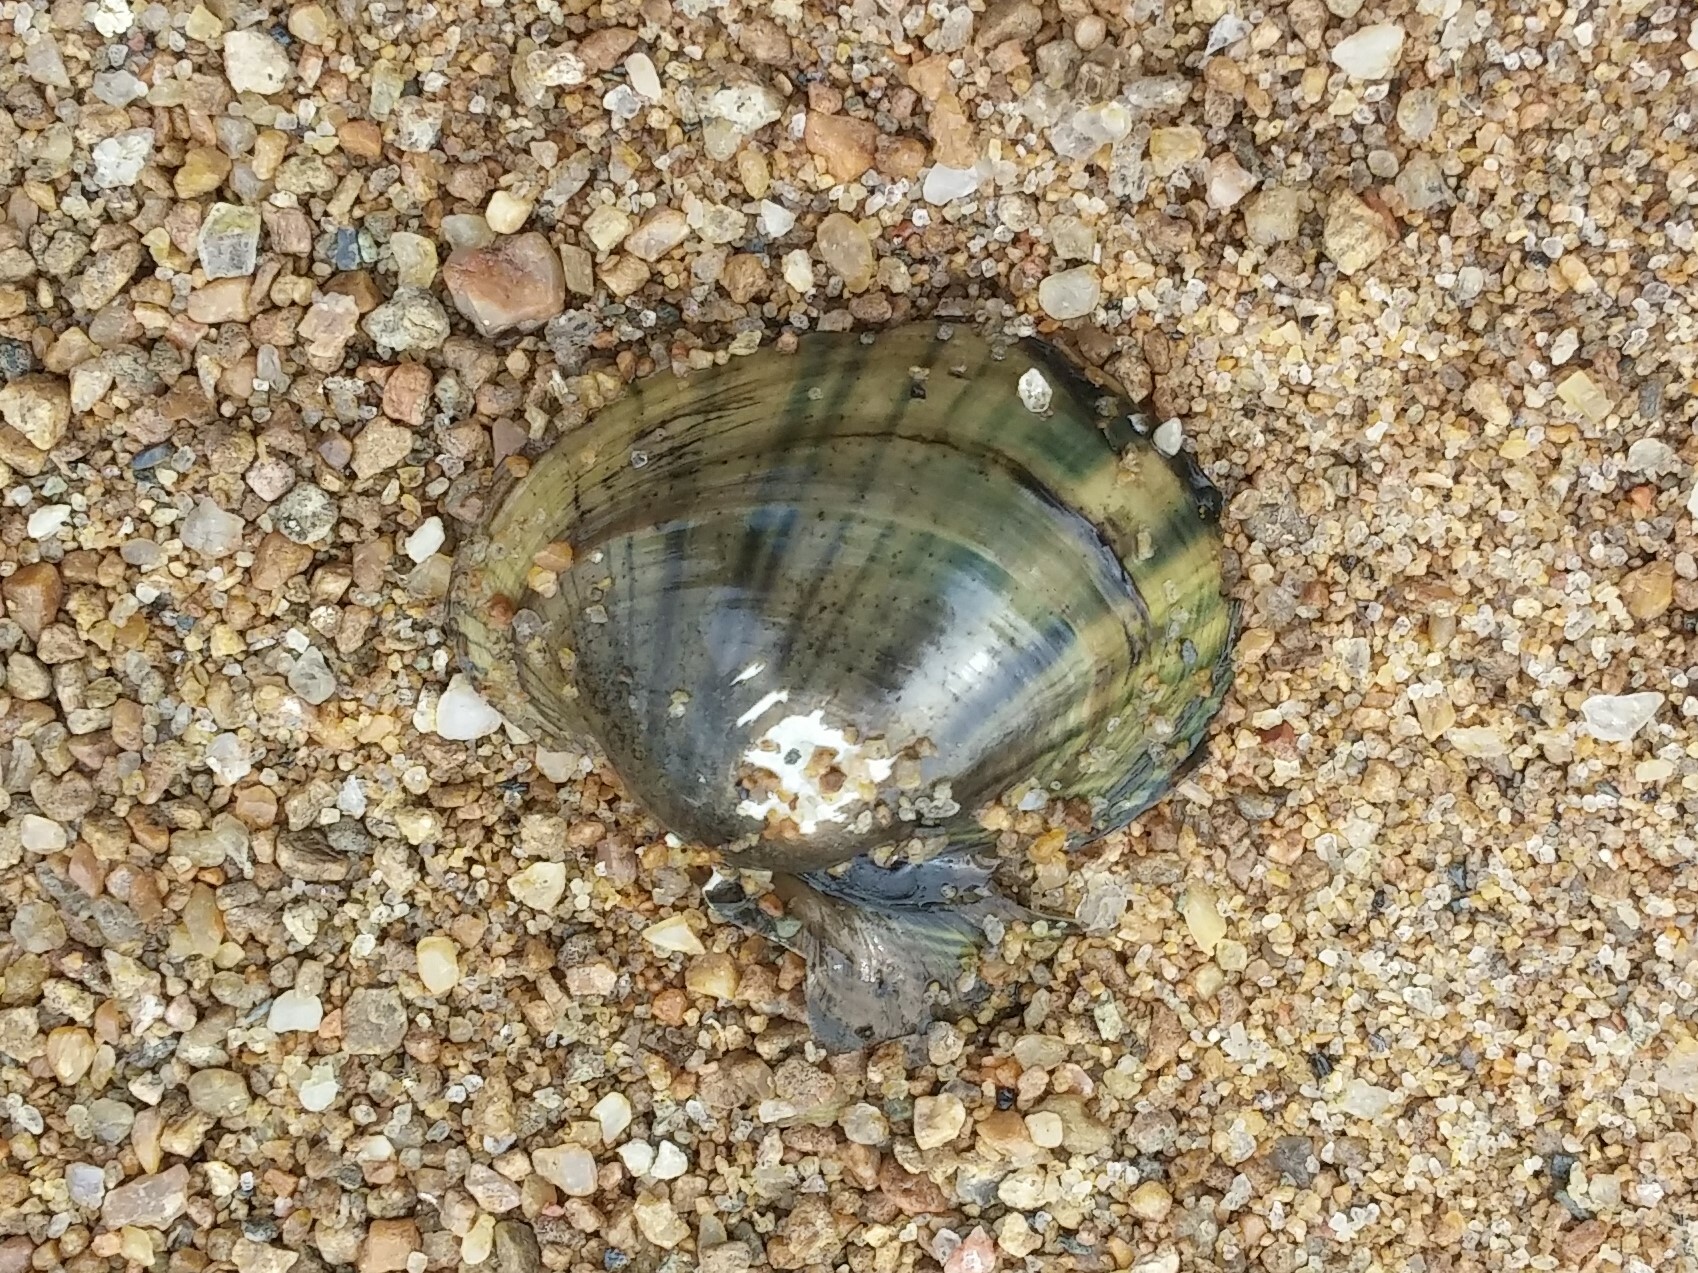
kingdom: Animalia
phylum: Mollusca
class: Bivalvia
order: Unionida
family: Unionidae
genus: Lampsilis
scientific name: Lampsilis cardium
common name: Plain pocketbook
